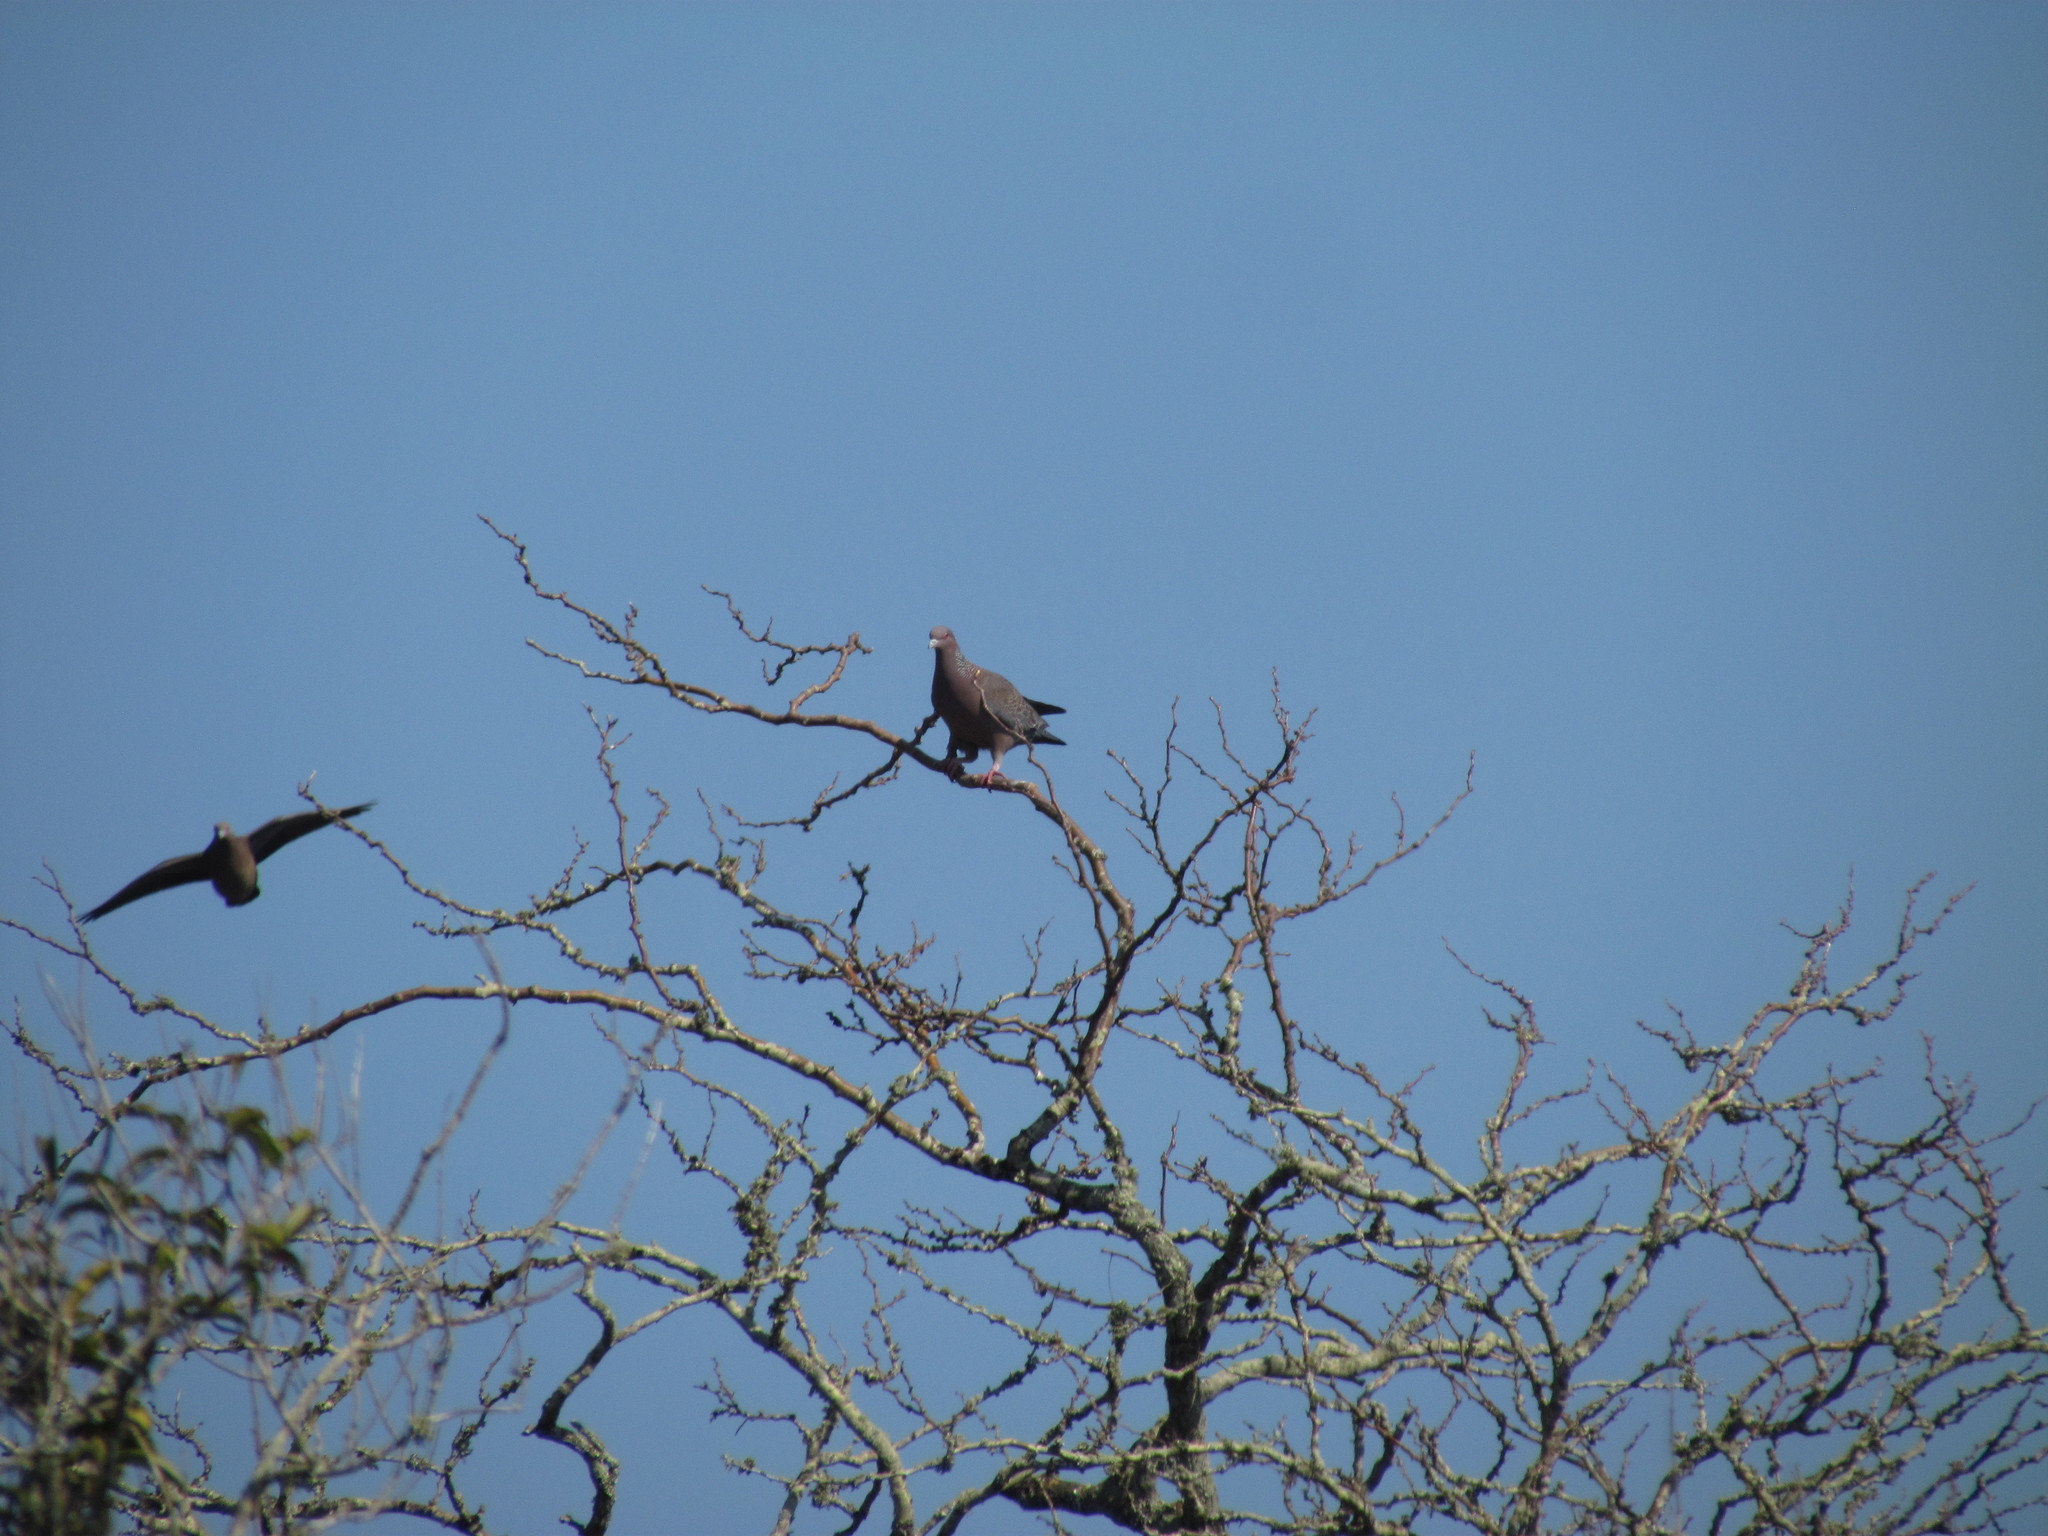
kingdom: Animalia
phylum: Chordata
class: Aves
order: Columbiformes
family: Columbidae
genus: Patagioenas
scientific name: Patagioenas picazuro
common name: Picazuro pigeon
